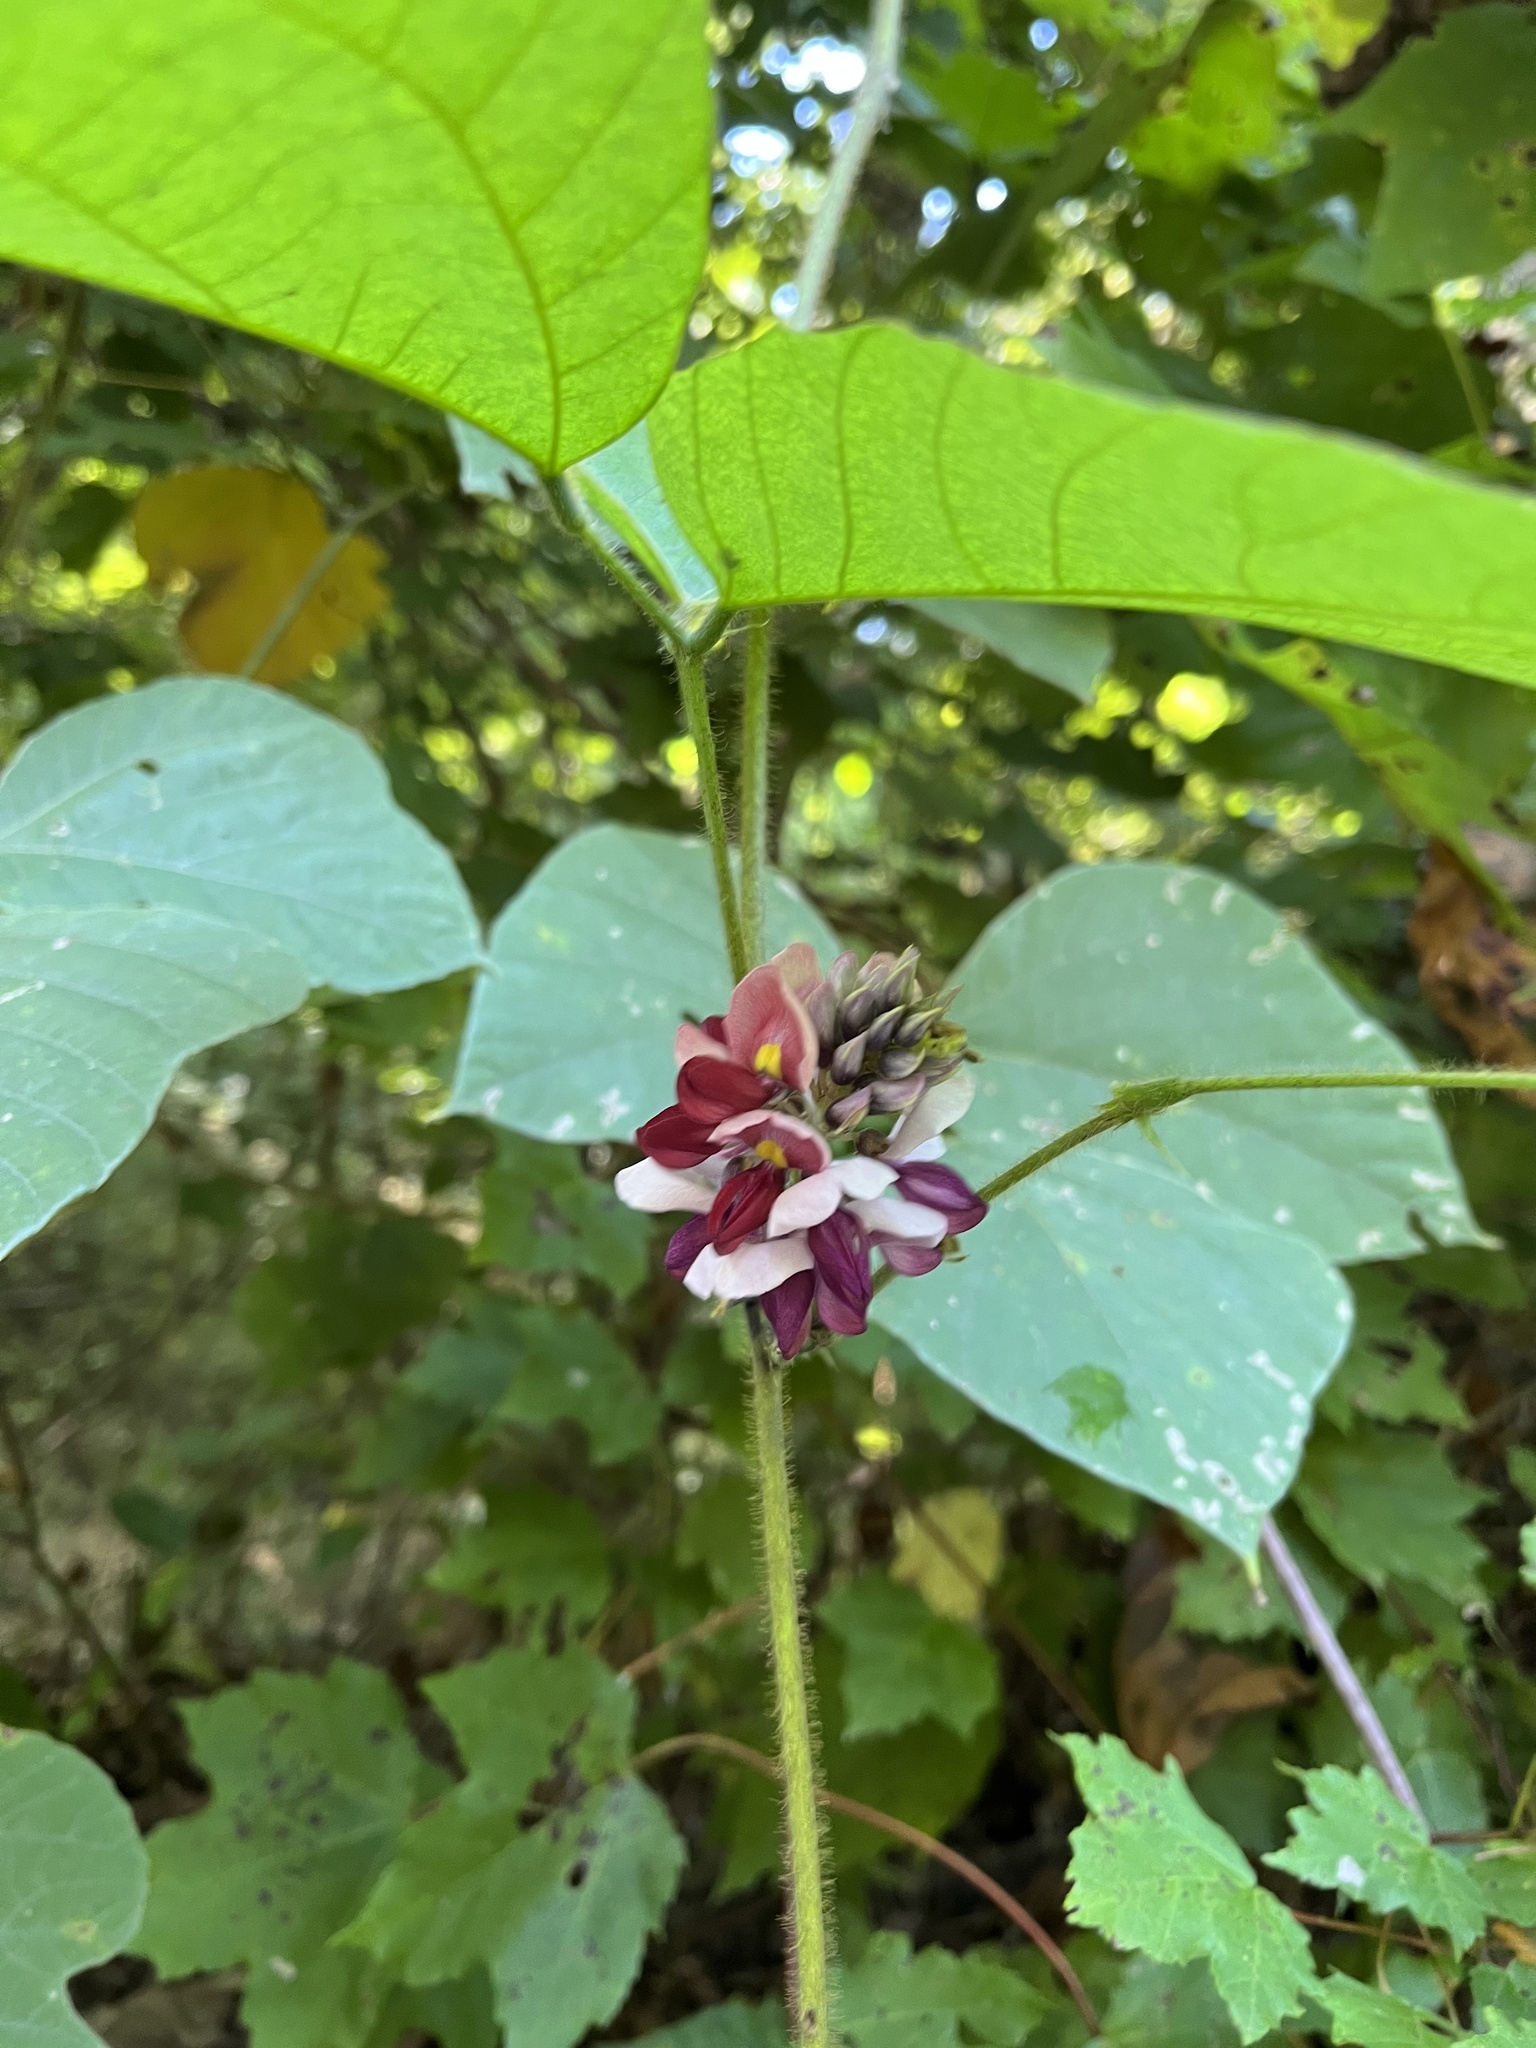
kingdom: Plantae
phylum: Tracheophyta
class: Magnoliopsida
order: Fabales
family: Fabaceae
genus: Pueraria
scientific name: Pueraria montana
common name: Kudzu
